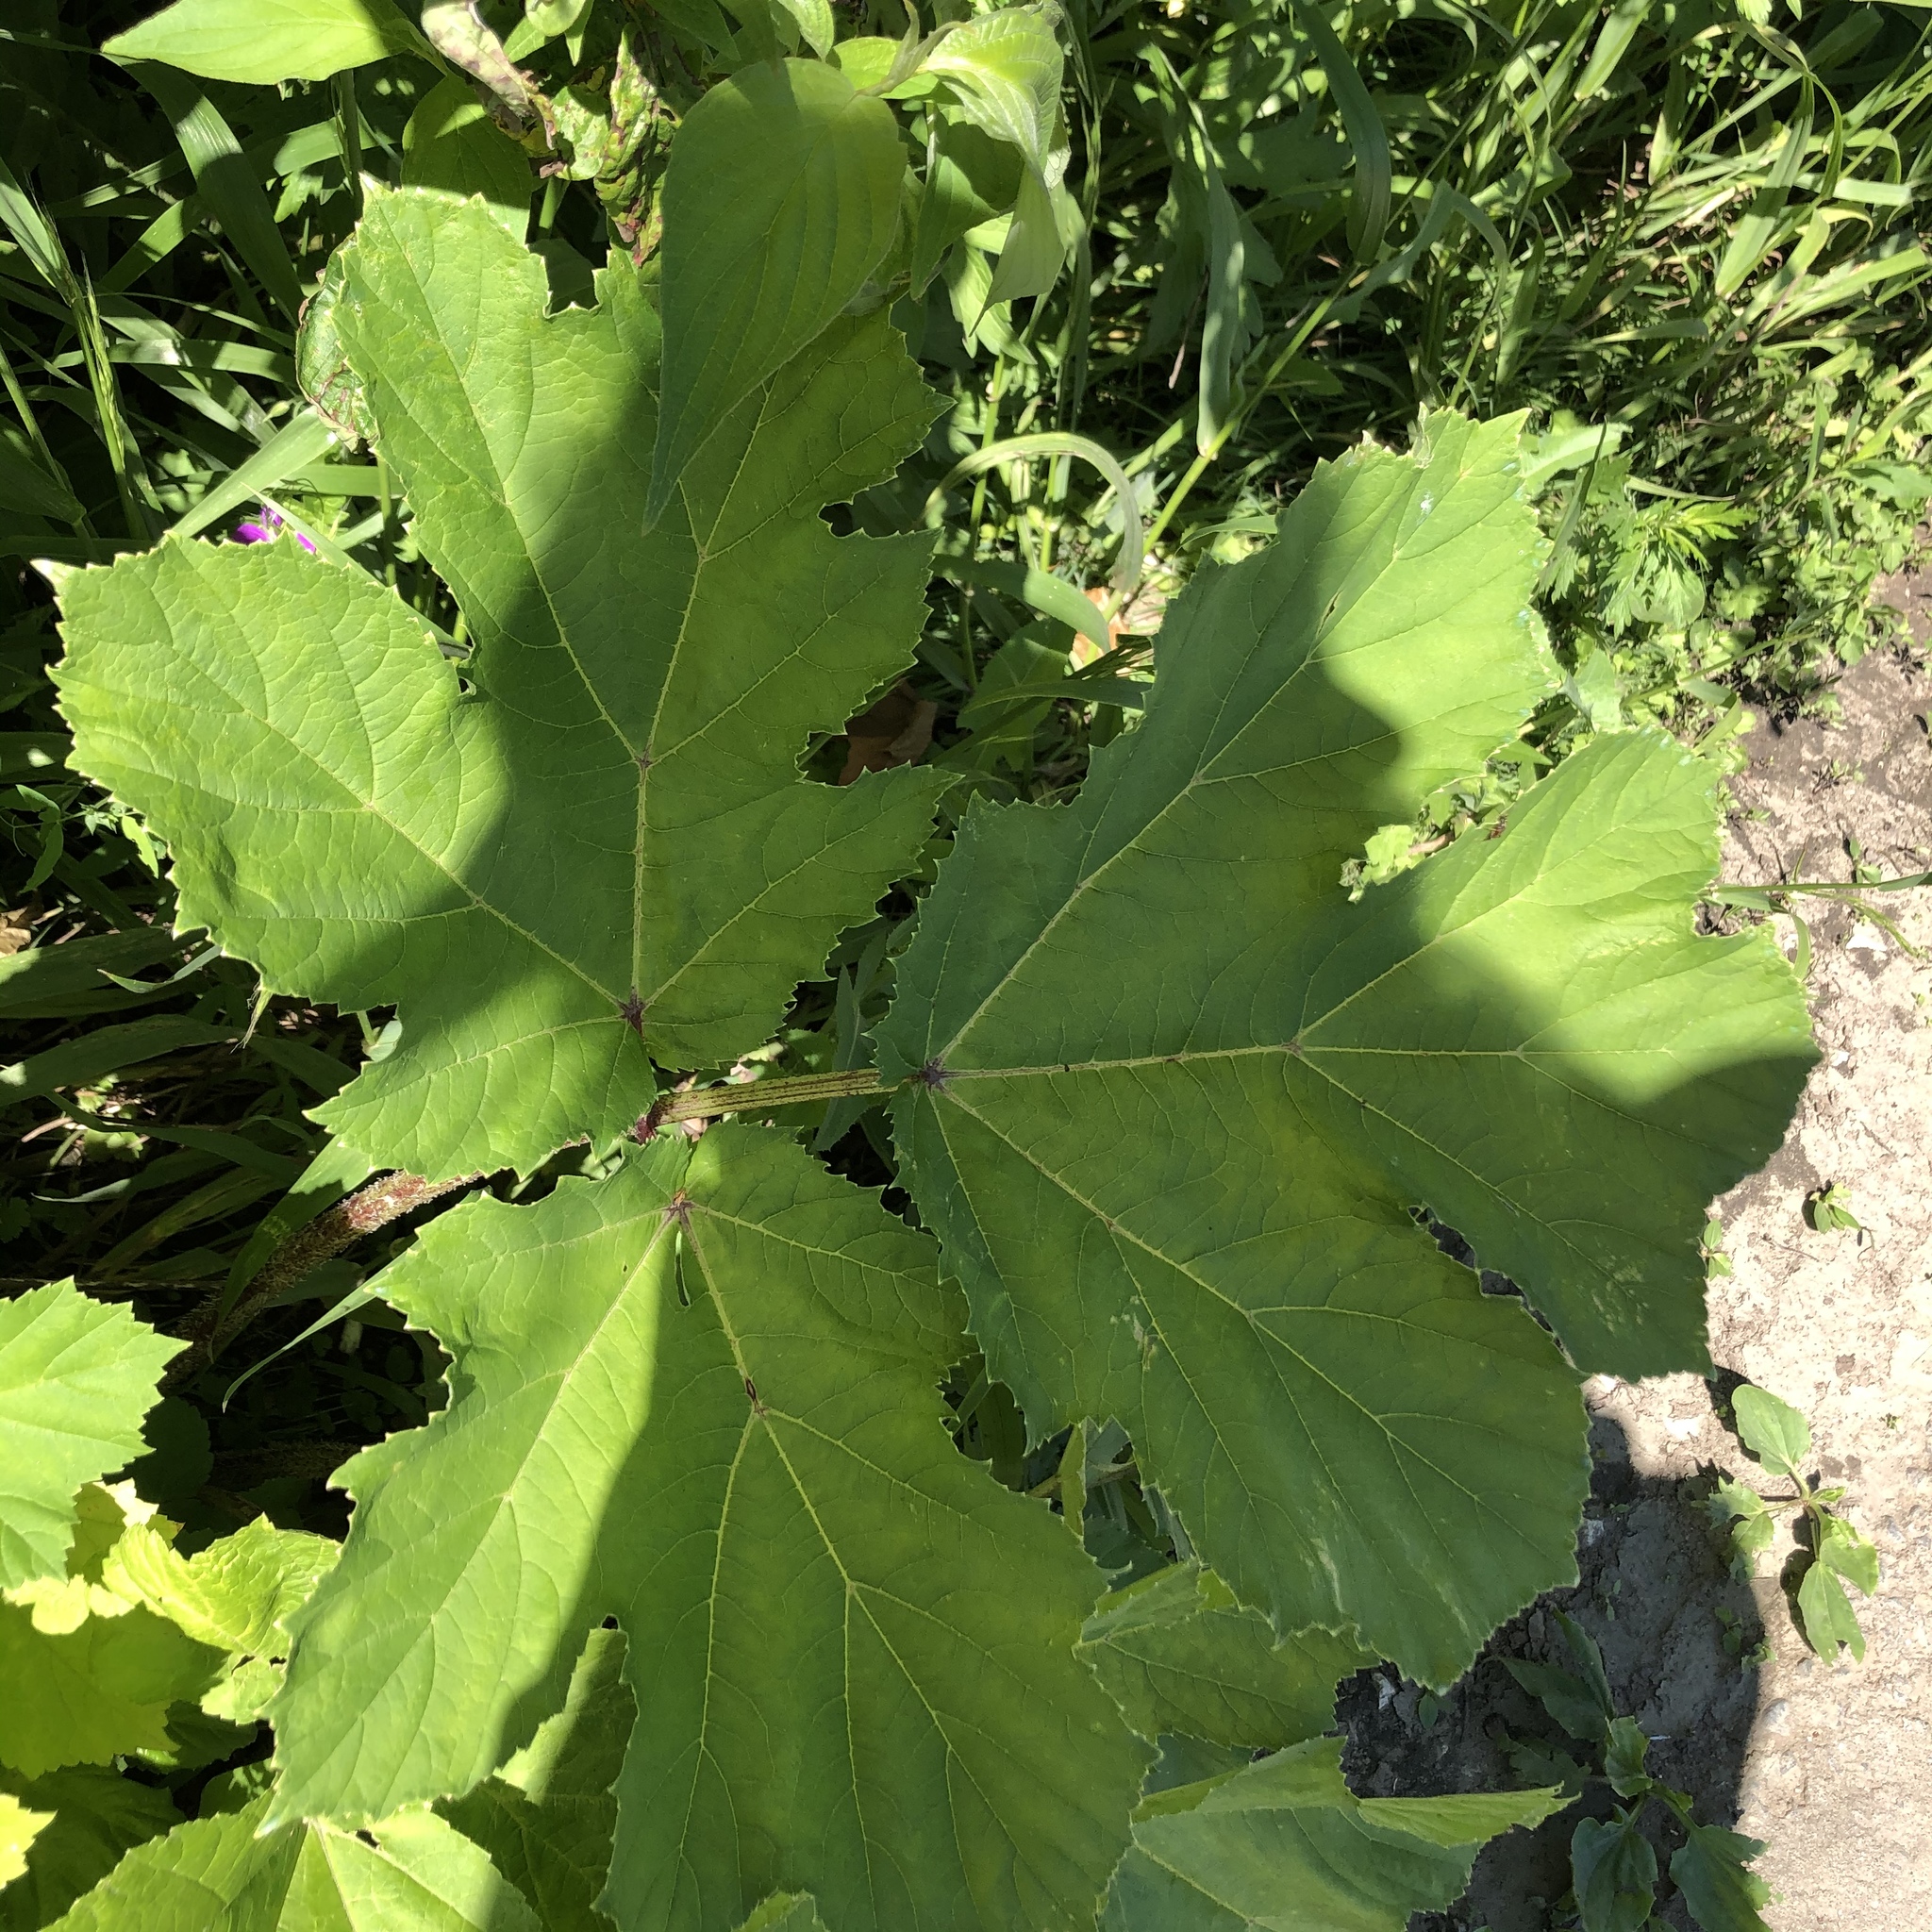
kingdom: Plantae
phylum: Tracheophyta
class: Magnoliopsida
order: Apiales
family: Apiaceae
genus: Heracleum
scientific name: Heracleum sosnowskyi
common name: Sosnowsky's hogweed
